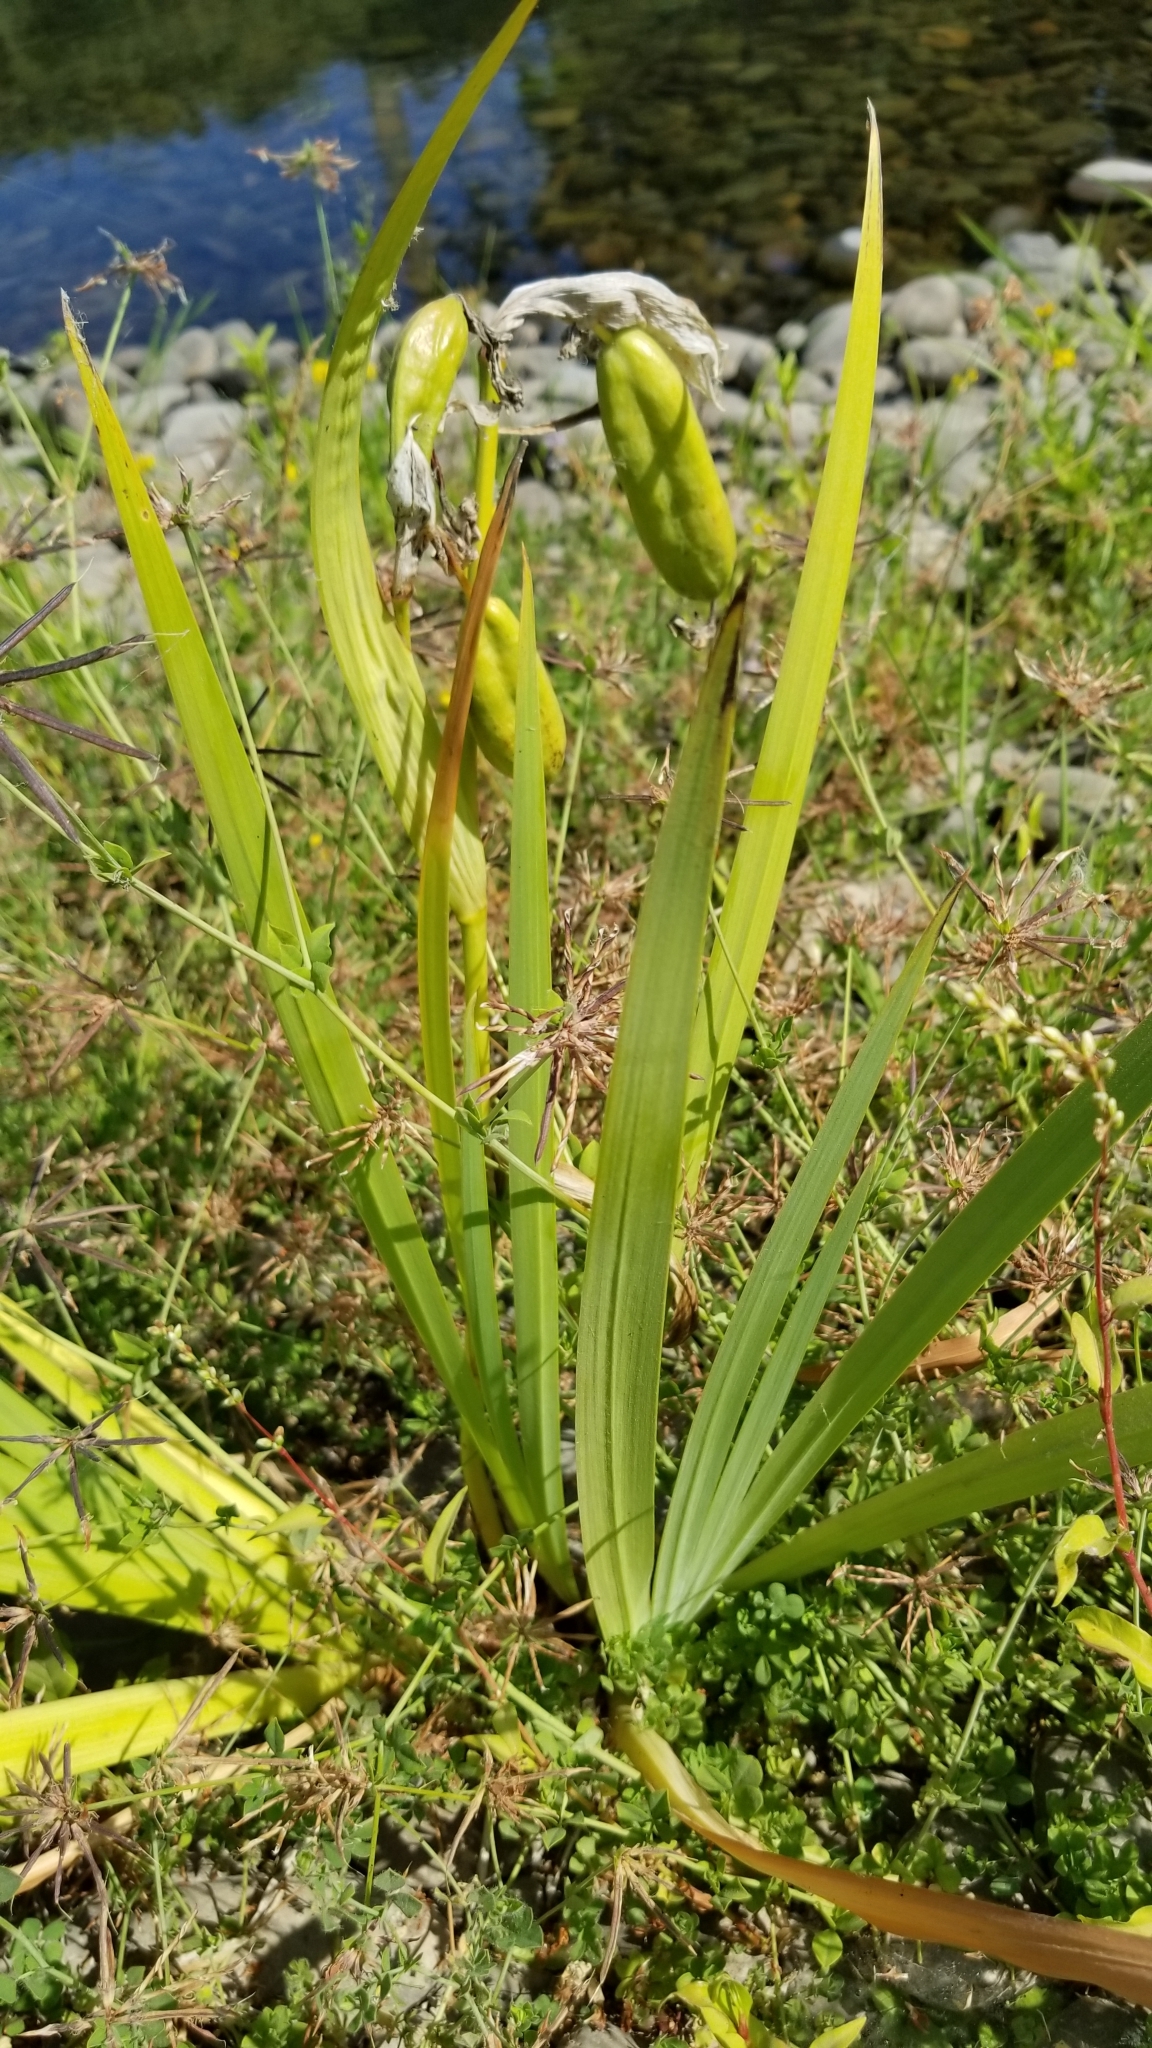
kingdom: Plantae
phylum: Tracheophyta
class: Liliopsida
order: Asparagales
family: Iridaceae
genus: Iris
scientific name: Iris domestica
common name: Belamcanda
